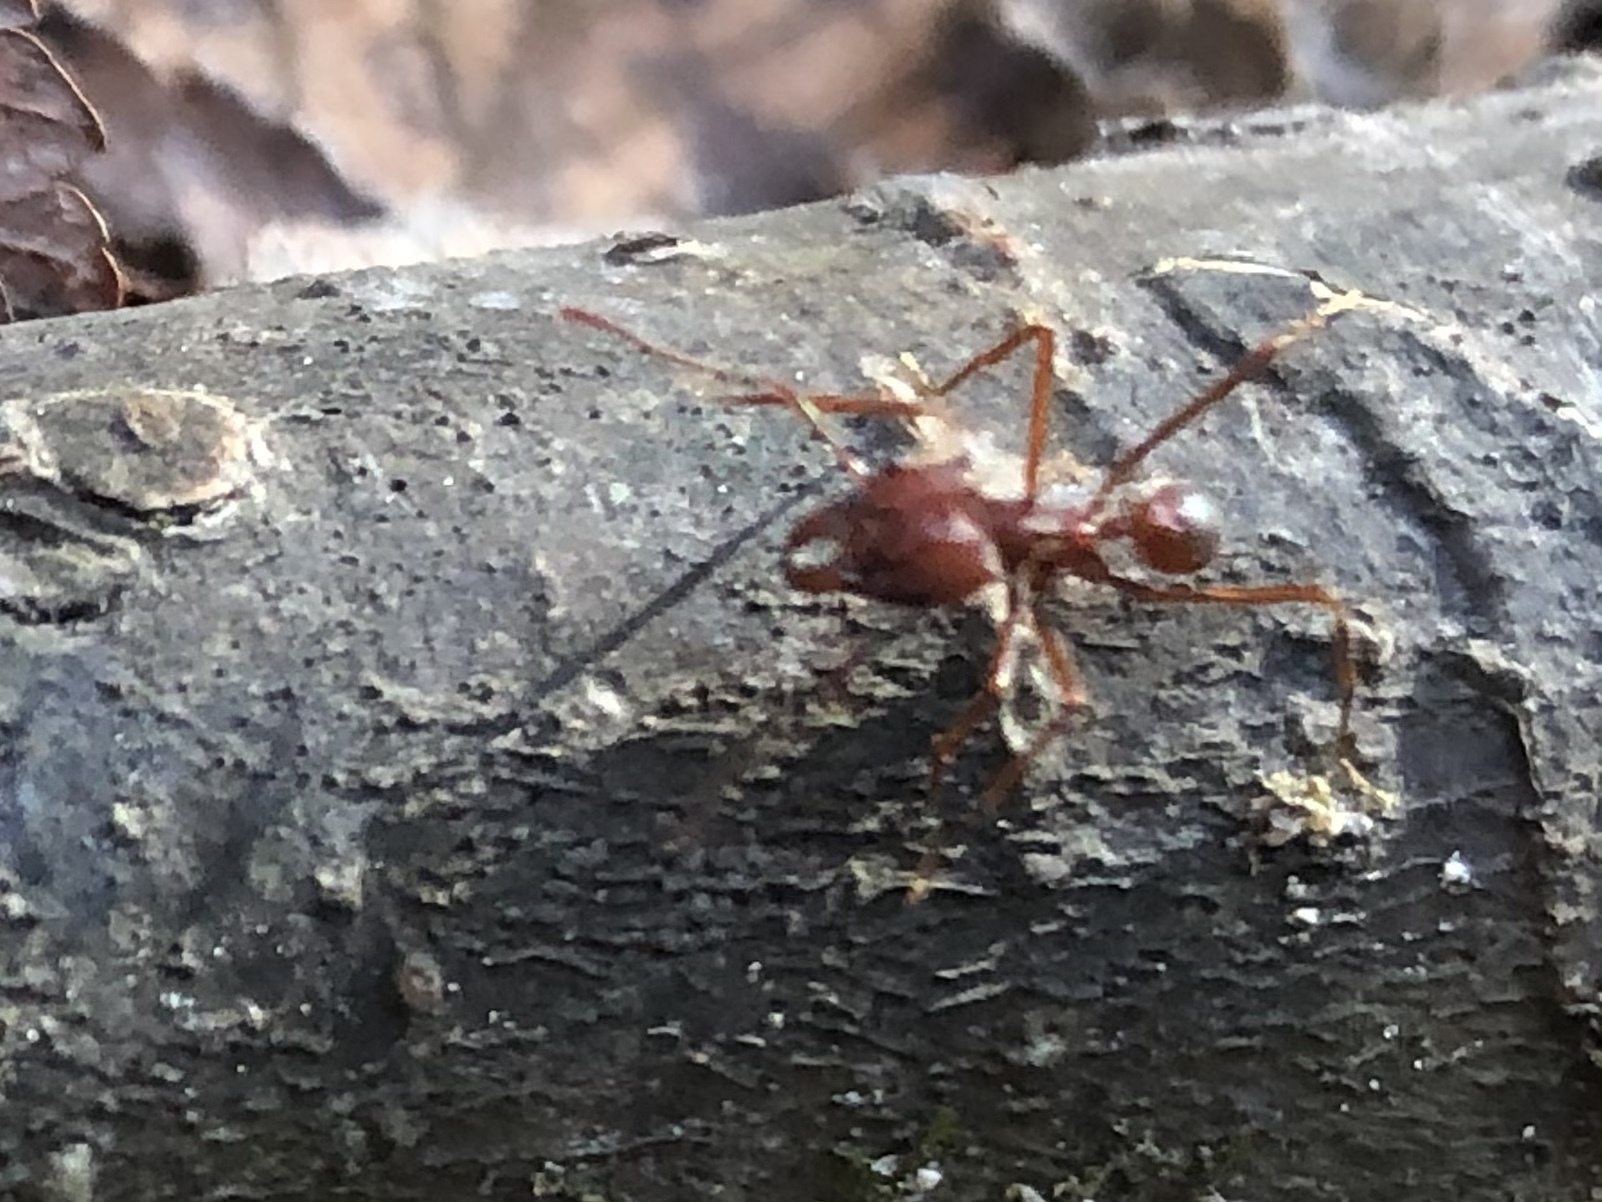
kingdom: Animalia
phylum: Arthropoda
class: Insecta
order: Hymenoptera
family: Formicidae
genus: Atta
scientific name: Atta texana
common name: Texas leafcutting ant
